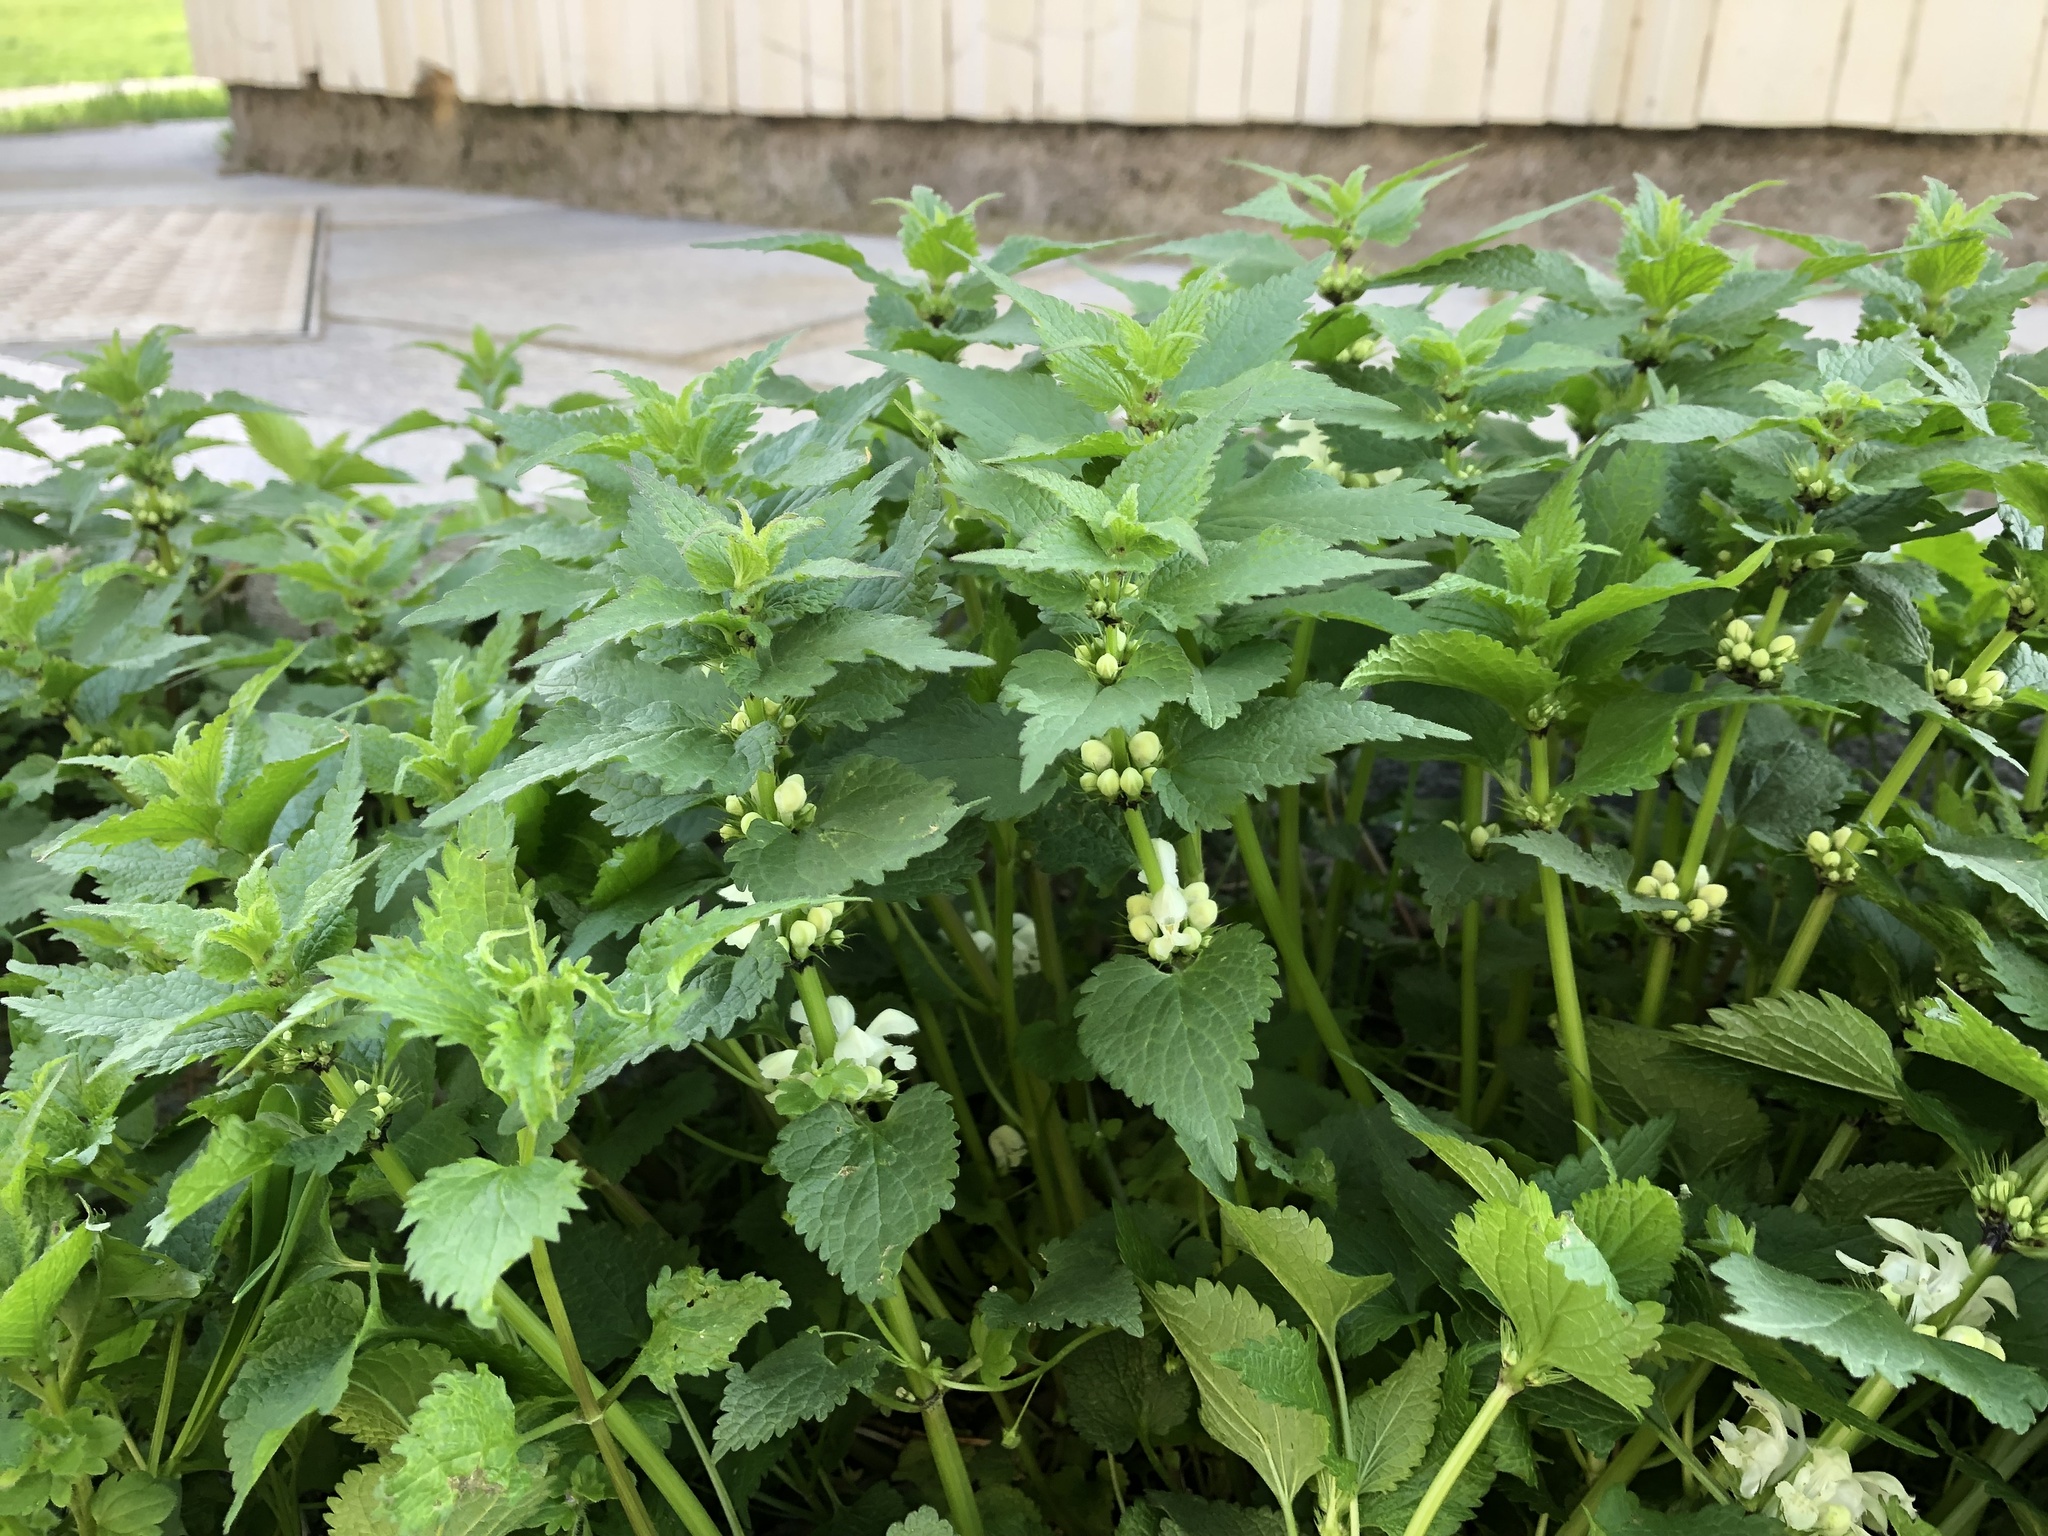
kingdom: Plantae
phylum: Tracheophyta
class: Magnoliopsida
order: Lamiales
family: Lamiaceae
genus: Lamium
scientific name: Lamium album
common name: White dead-nettle
